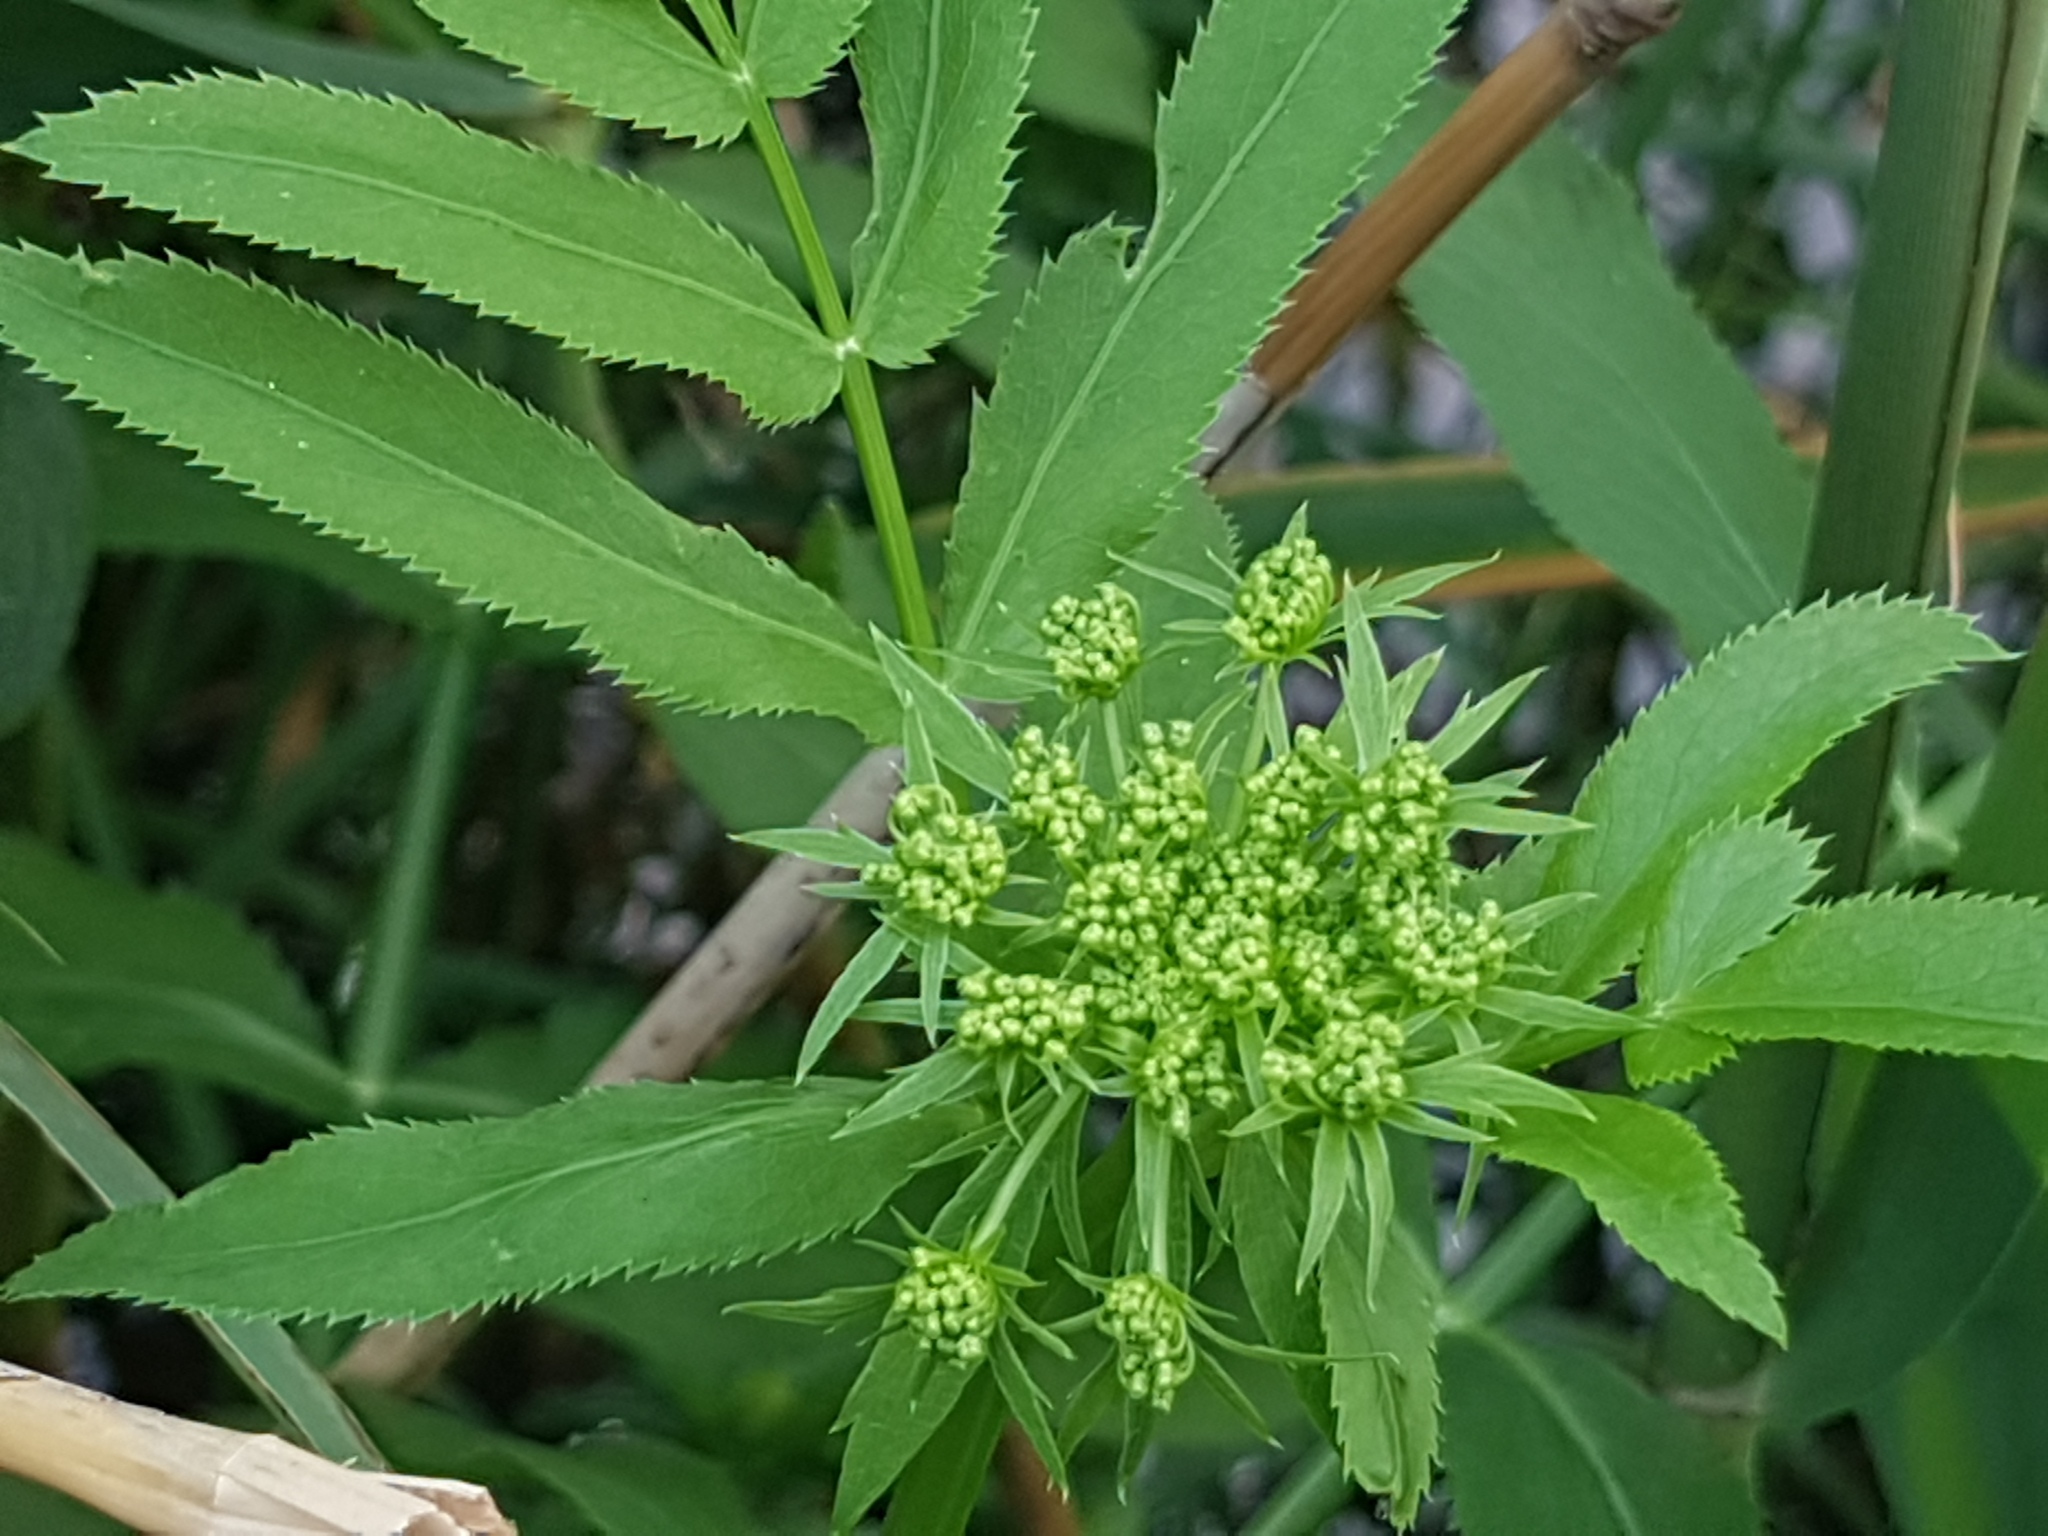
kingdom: Plantae
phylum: Tracheophyta
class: Magnoliopsida
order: Apiales
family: Apiaceae
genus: Sium
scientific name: Sium latifolium
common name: Greater water-parsnip
